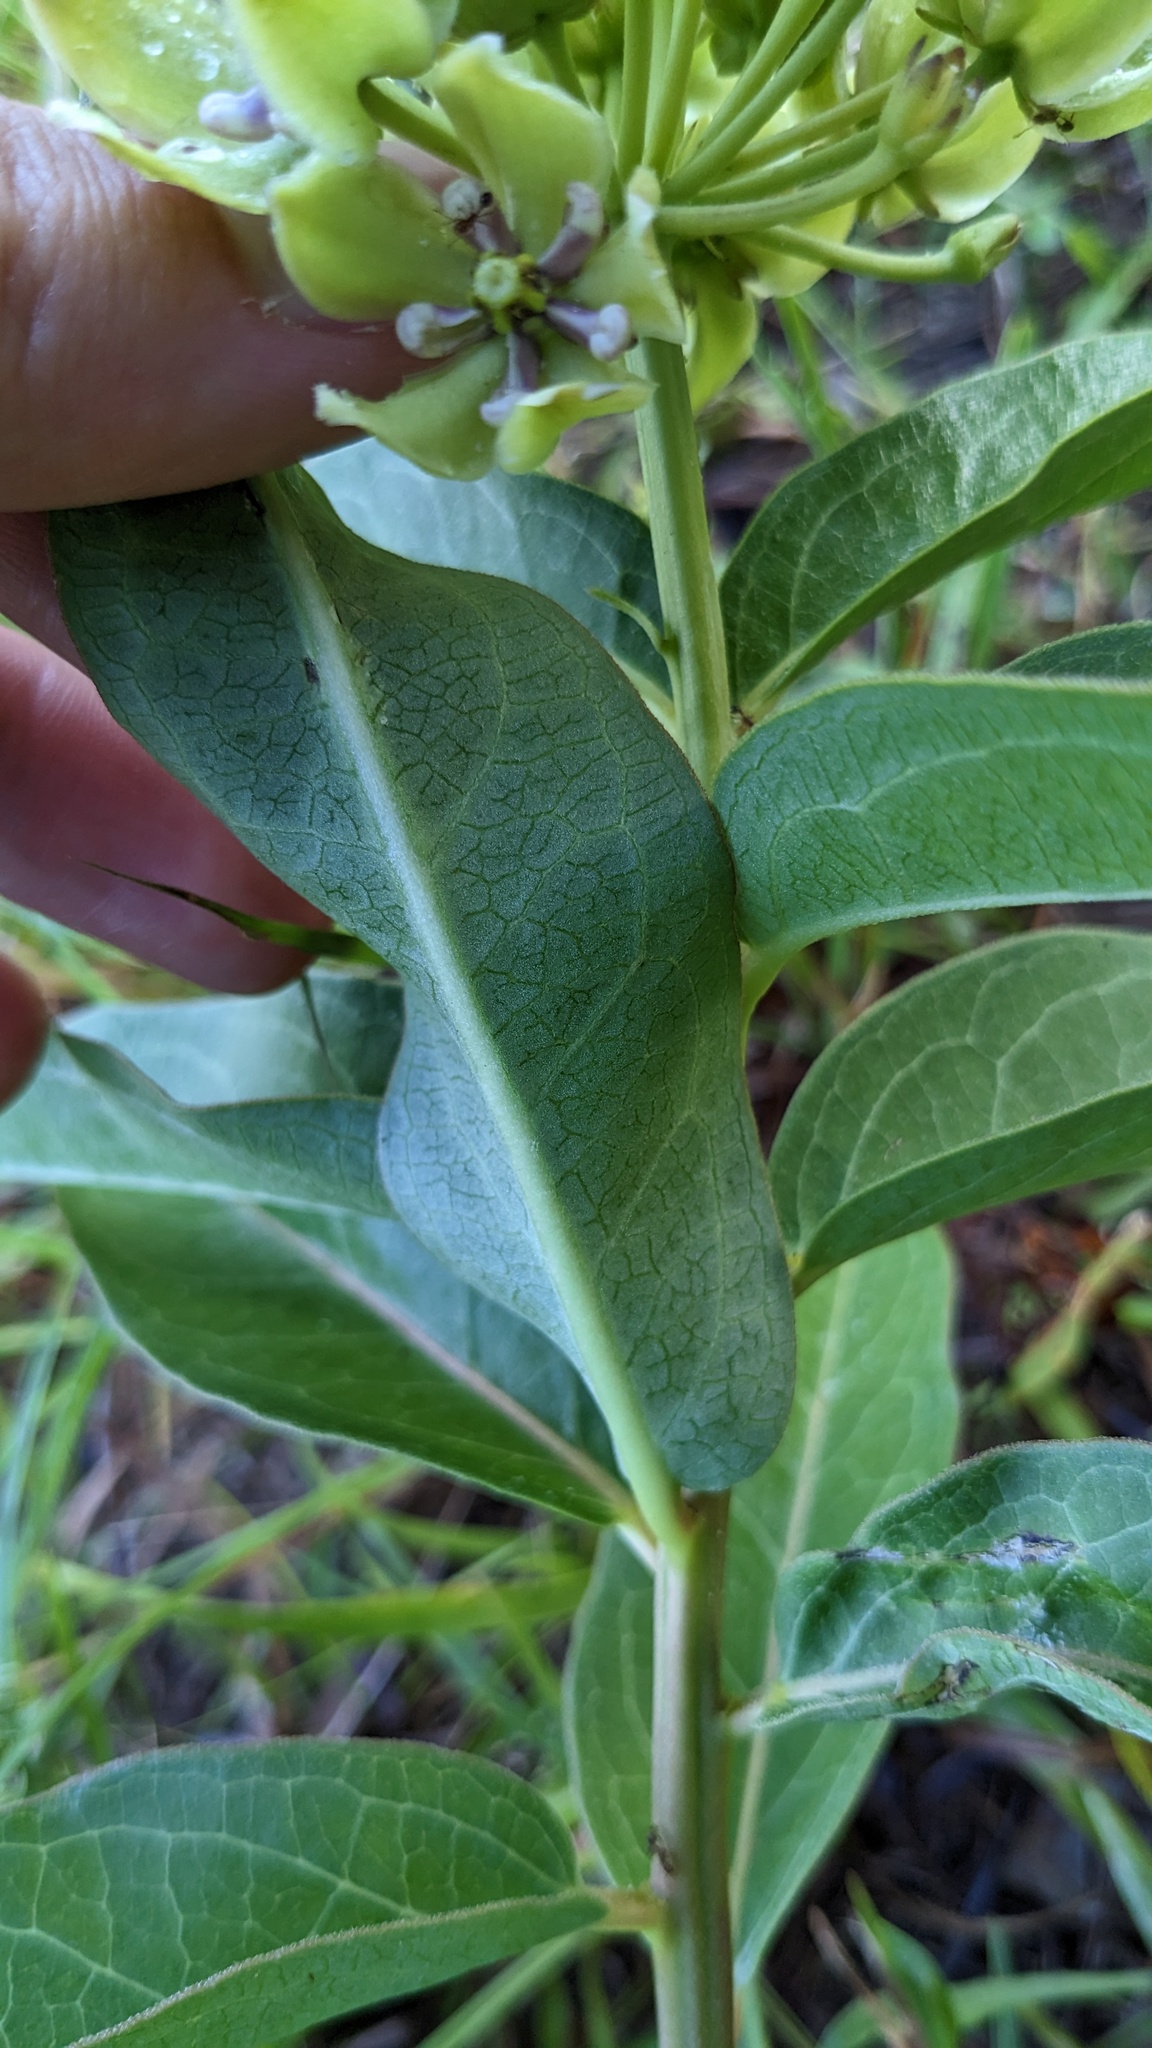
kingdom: Plantae
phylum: Tracheophyta
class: Magnoliopsida
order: Gentianales
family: Apocynaceae
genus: Asclepias
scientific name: Asclepias viridis
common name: Antelope-horns
